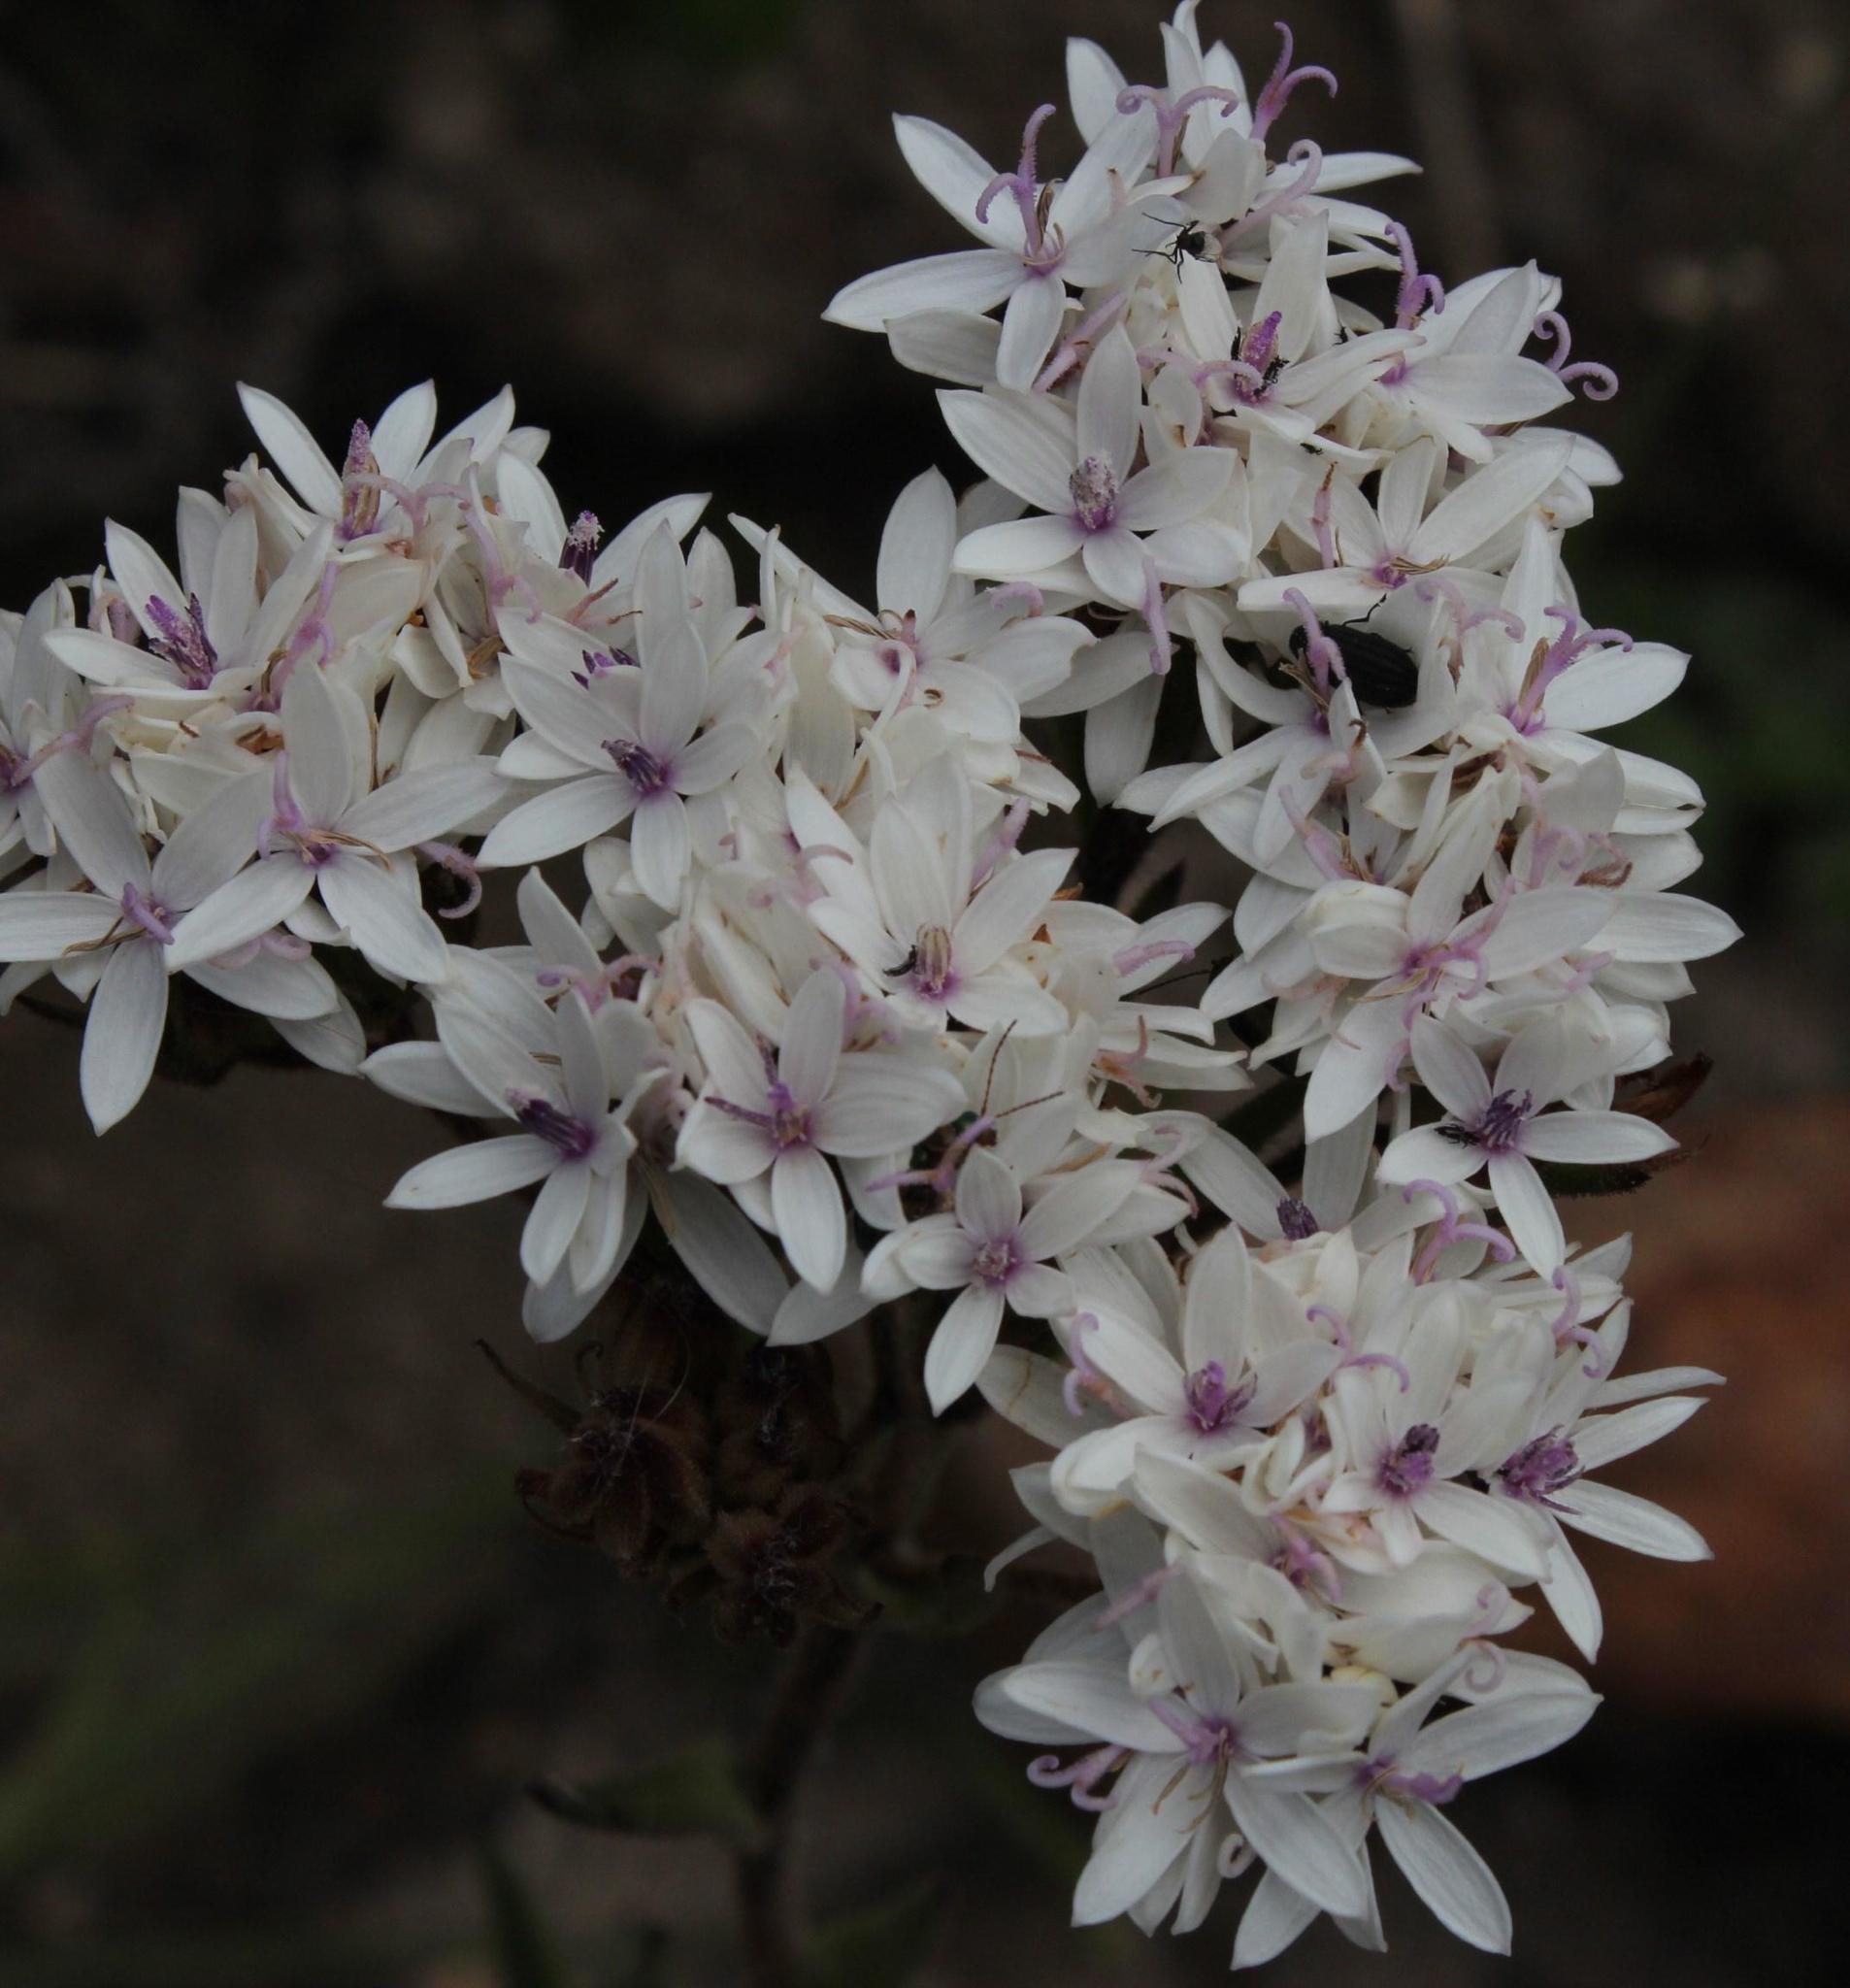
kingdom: Plantae
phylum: Tracheophyta
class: Magnoliopsida
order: Asterales
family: Asteraceae
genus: Corymbium
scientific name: Corymbium villosum
